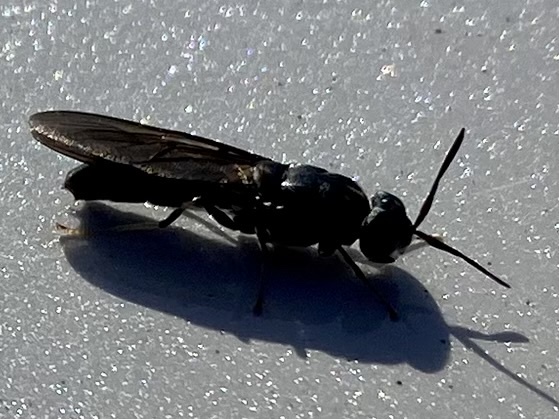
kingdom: Animalia
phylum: Arthropoda
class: Insecta
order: Diptera
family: Stratiomyidae
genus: Hermetia
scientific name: Hermetia illucens
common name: Black soldier fly
